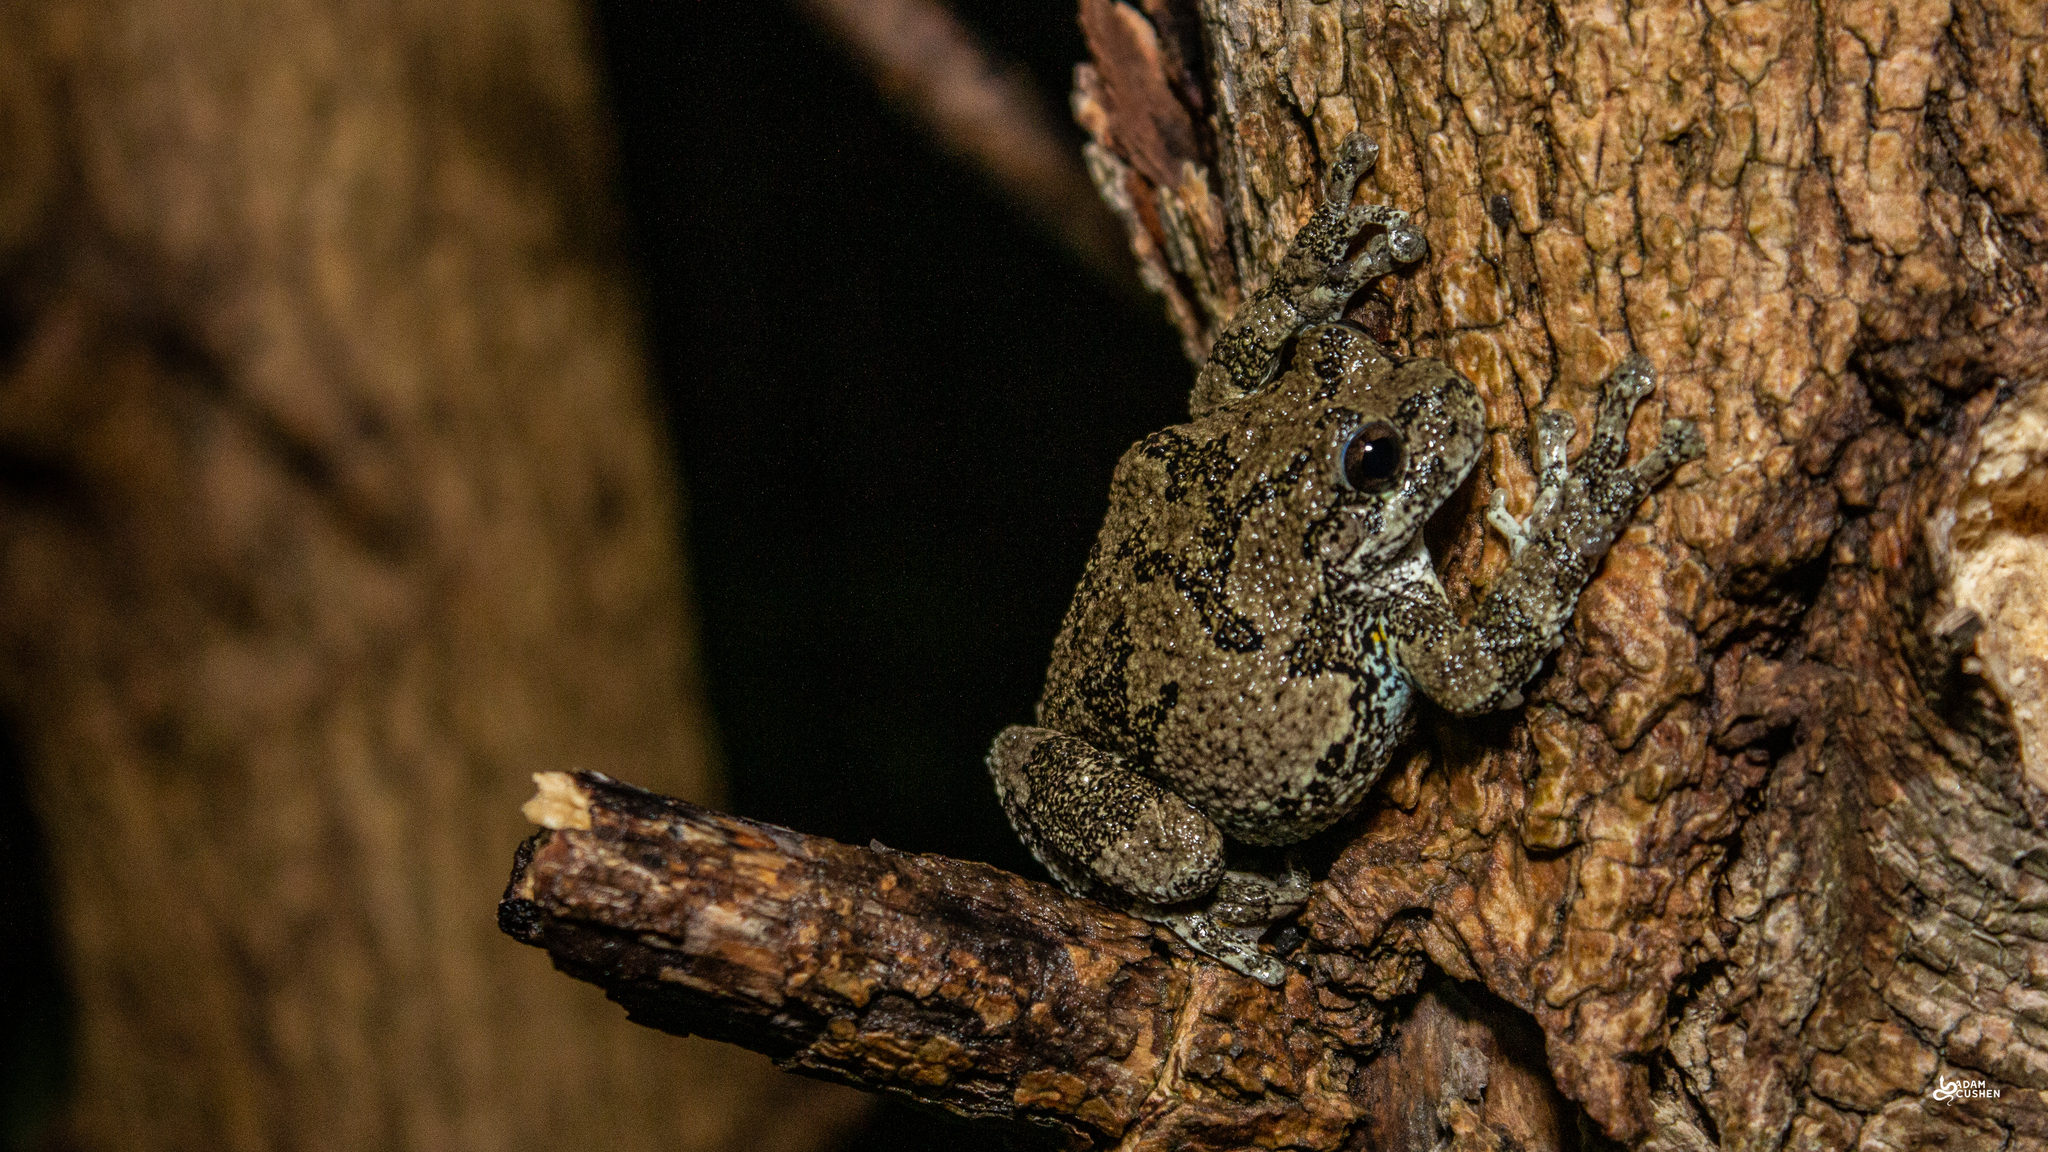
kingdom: Animalia
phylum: Chordata
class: Amphibia
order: Anura
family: Hylidae
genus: Dryophytes
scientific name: Dryophytes versicolor
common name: Gray treefrog
